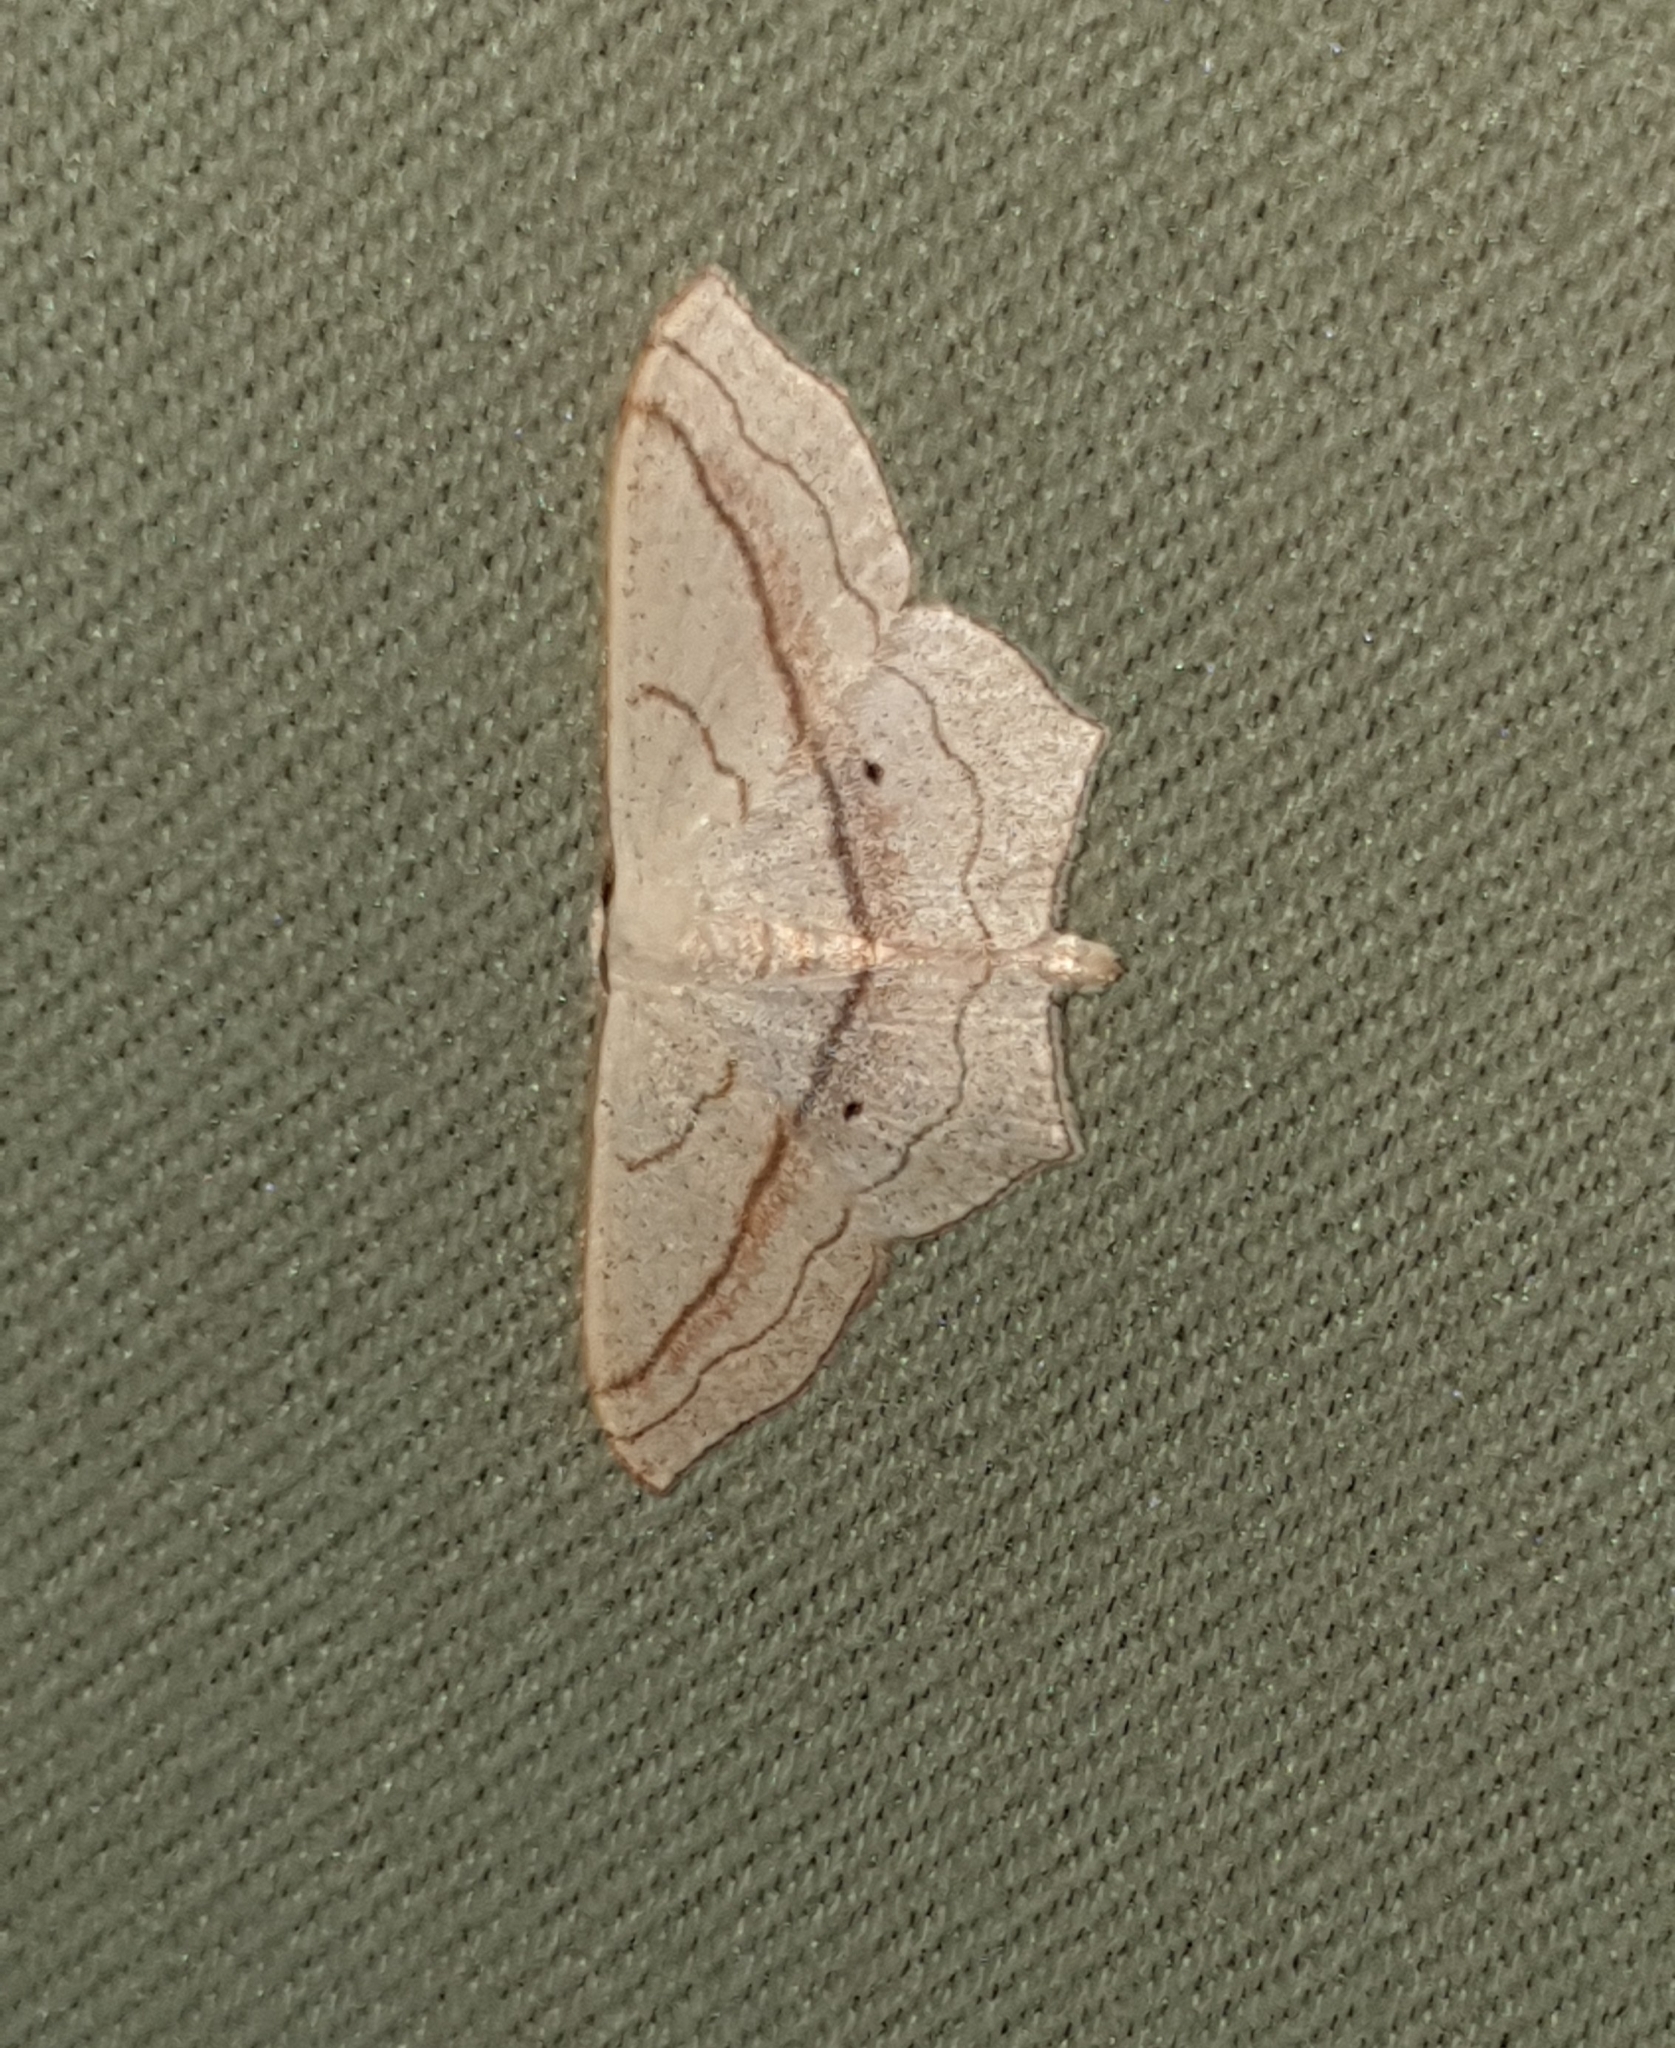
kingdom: Animalia
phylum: Arthropoda
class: Insecta
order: Lepidoptera
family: Geometridae
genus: Scopula
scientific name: Scopula imitaria
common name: Small blood-vein
